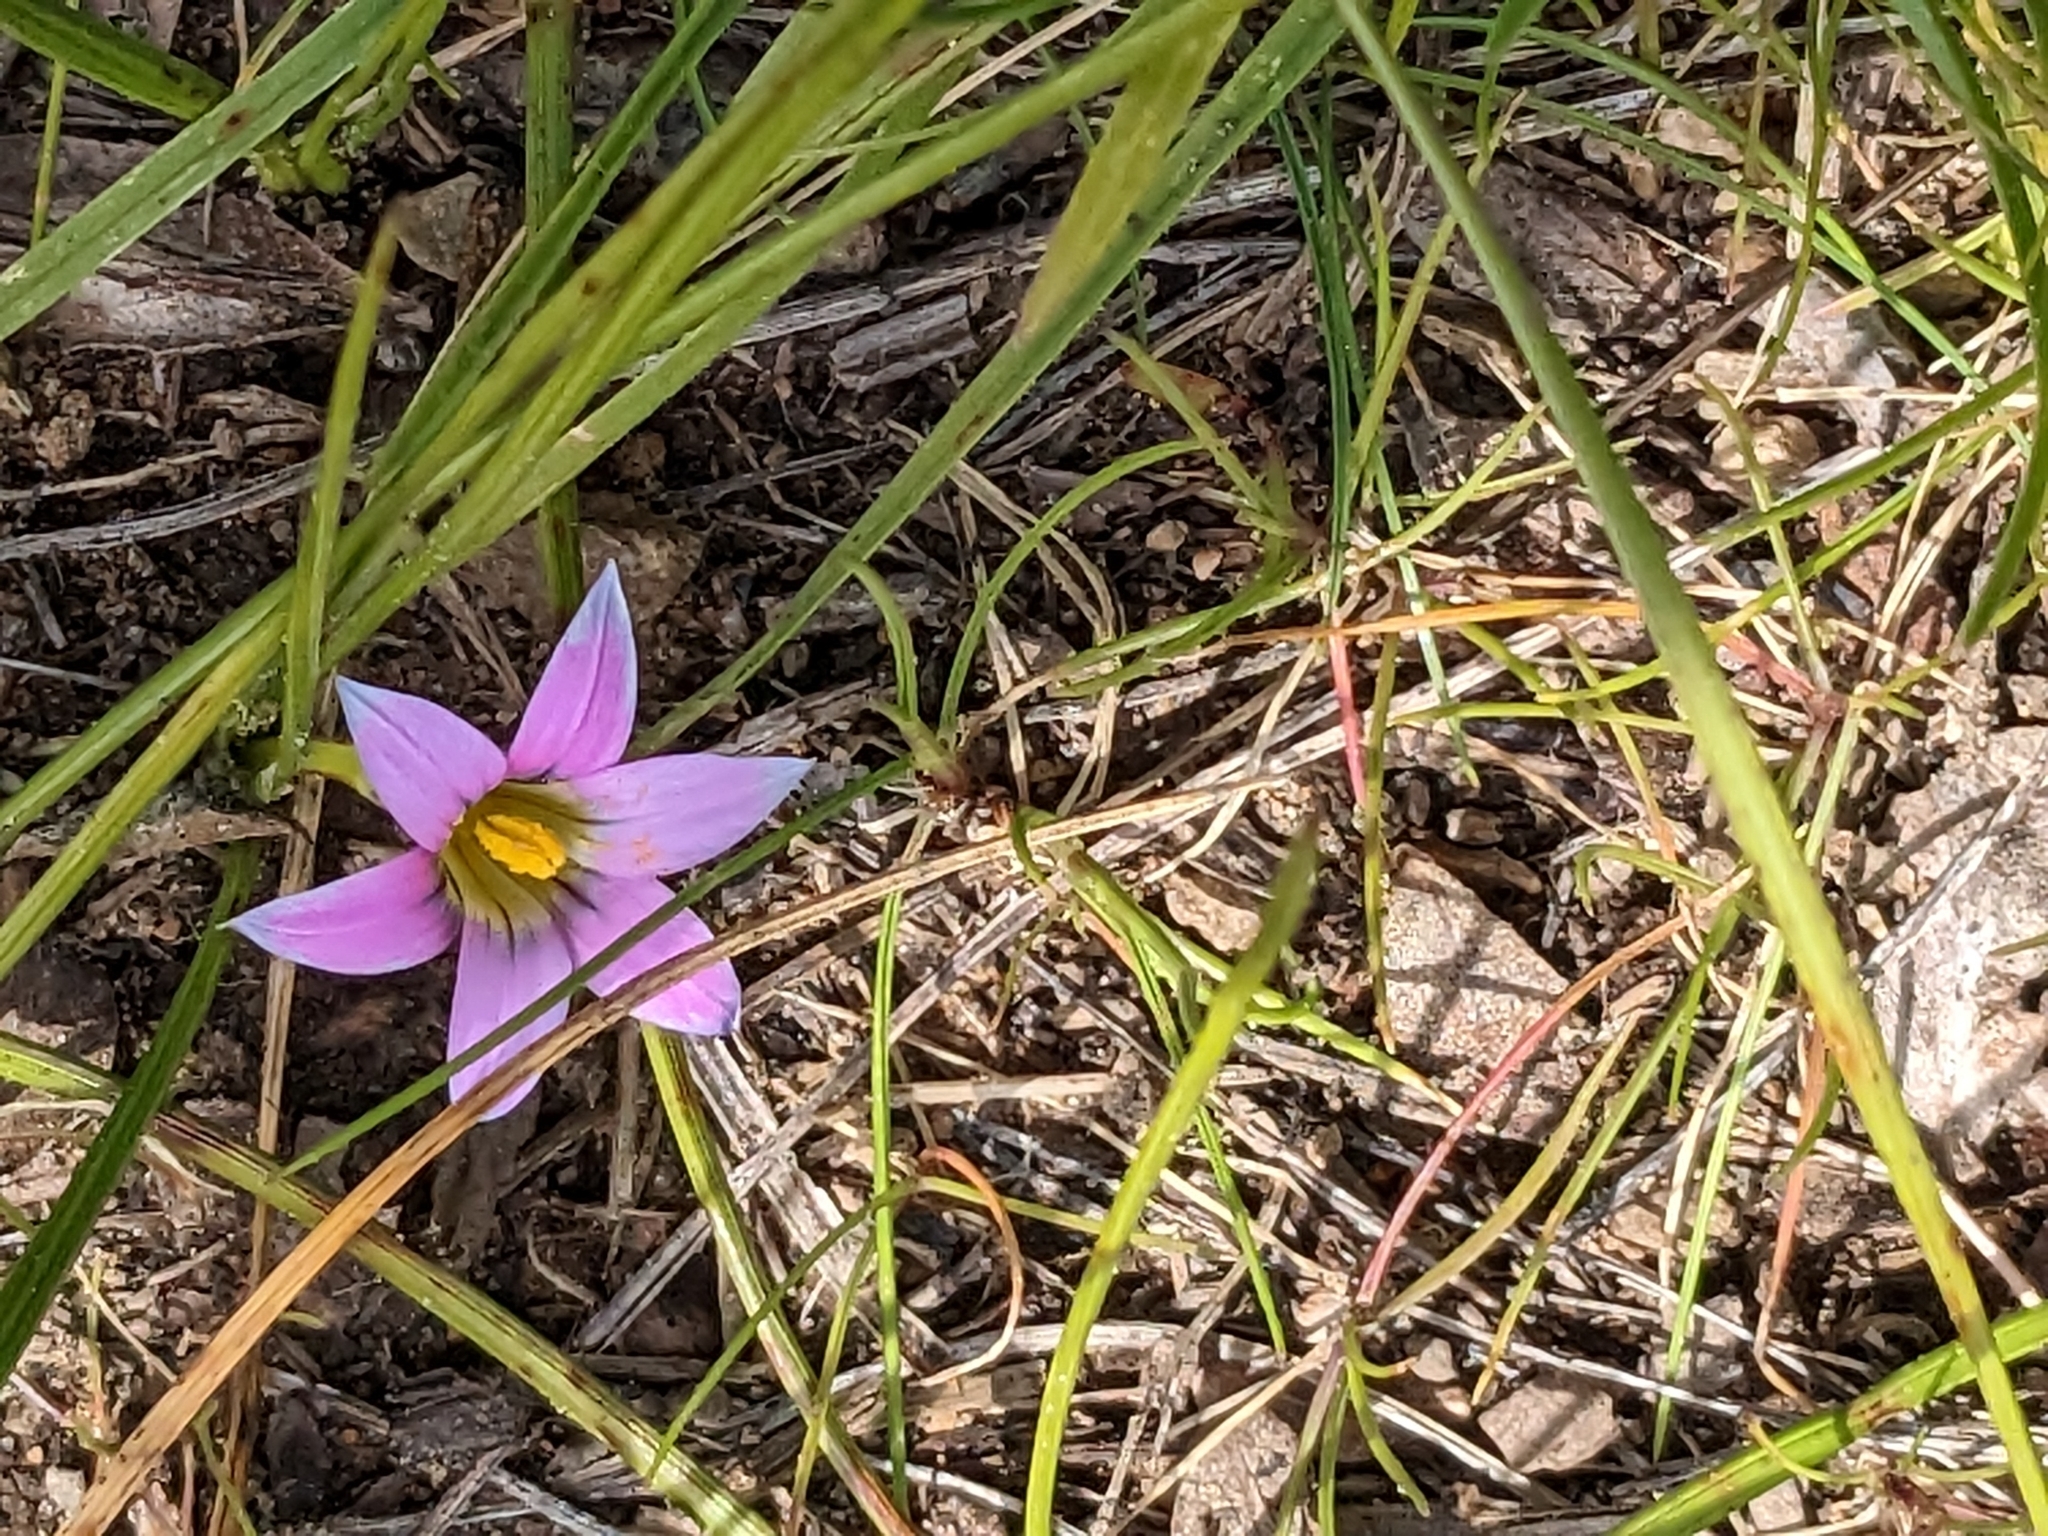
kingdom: Plantae
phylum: Tracheophyta
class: Liliopsida
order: Asparagales
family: Iridaceae
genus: Romulea
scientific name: Romulea rosea
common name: Oniongrass
